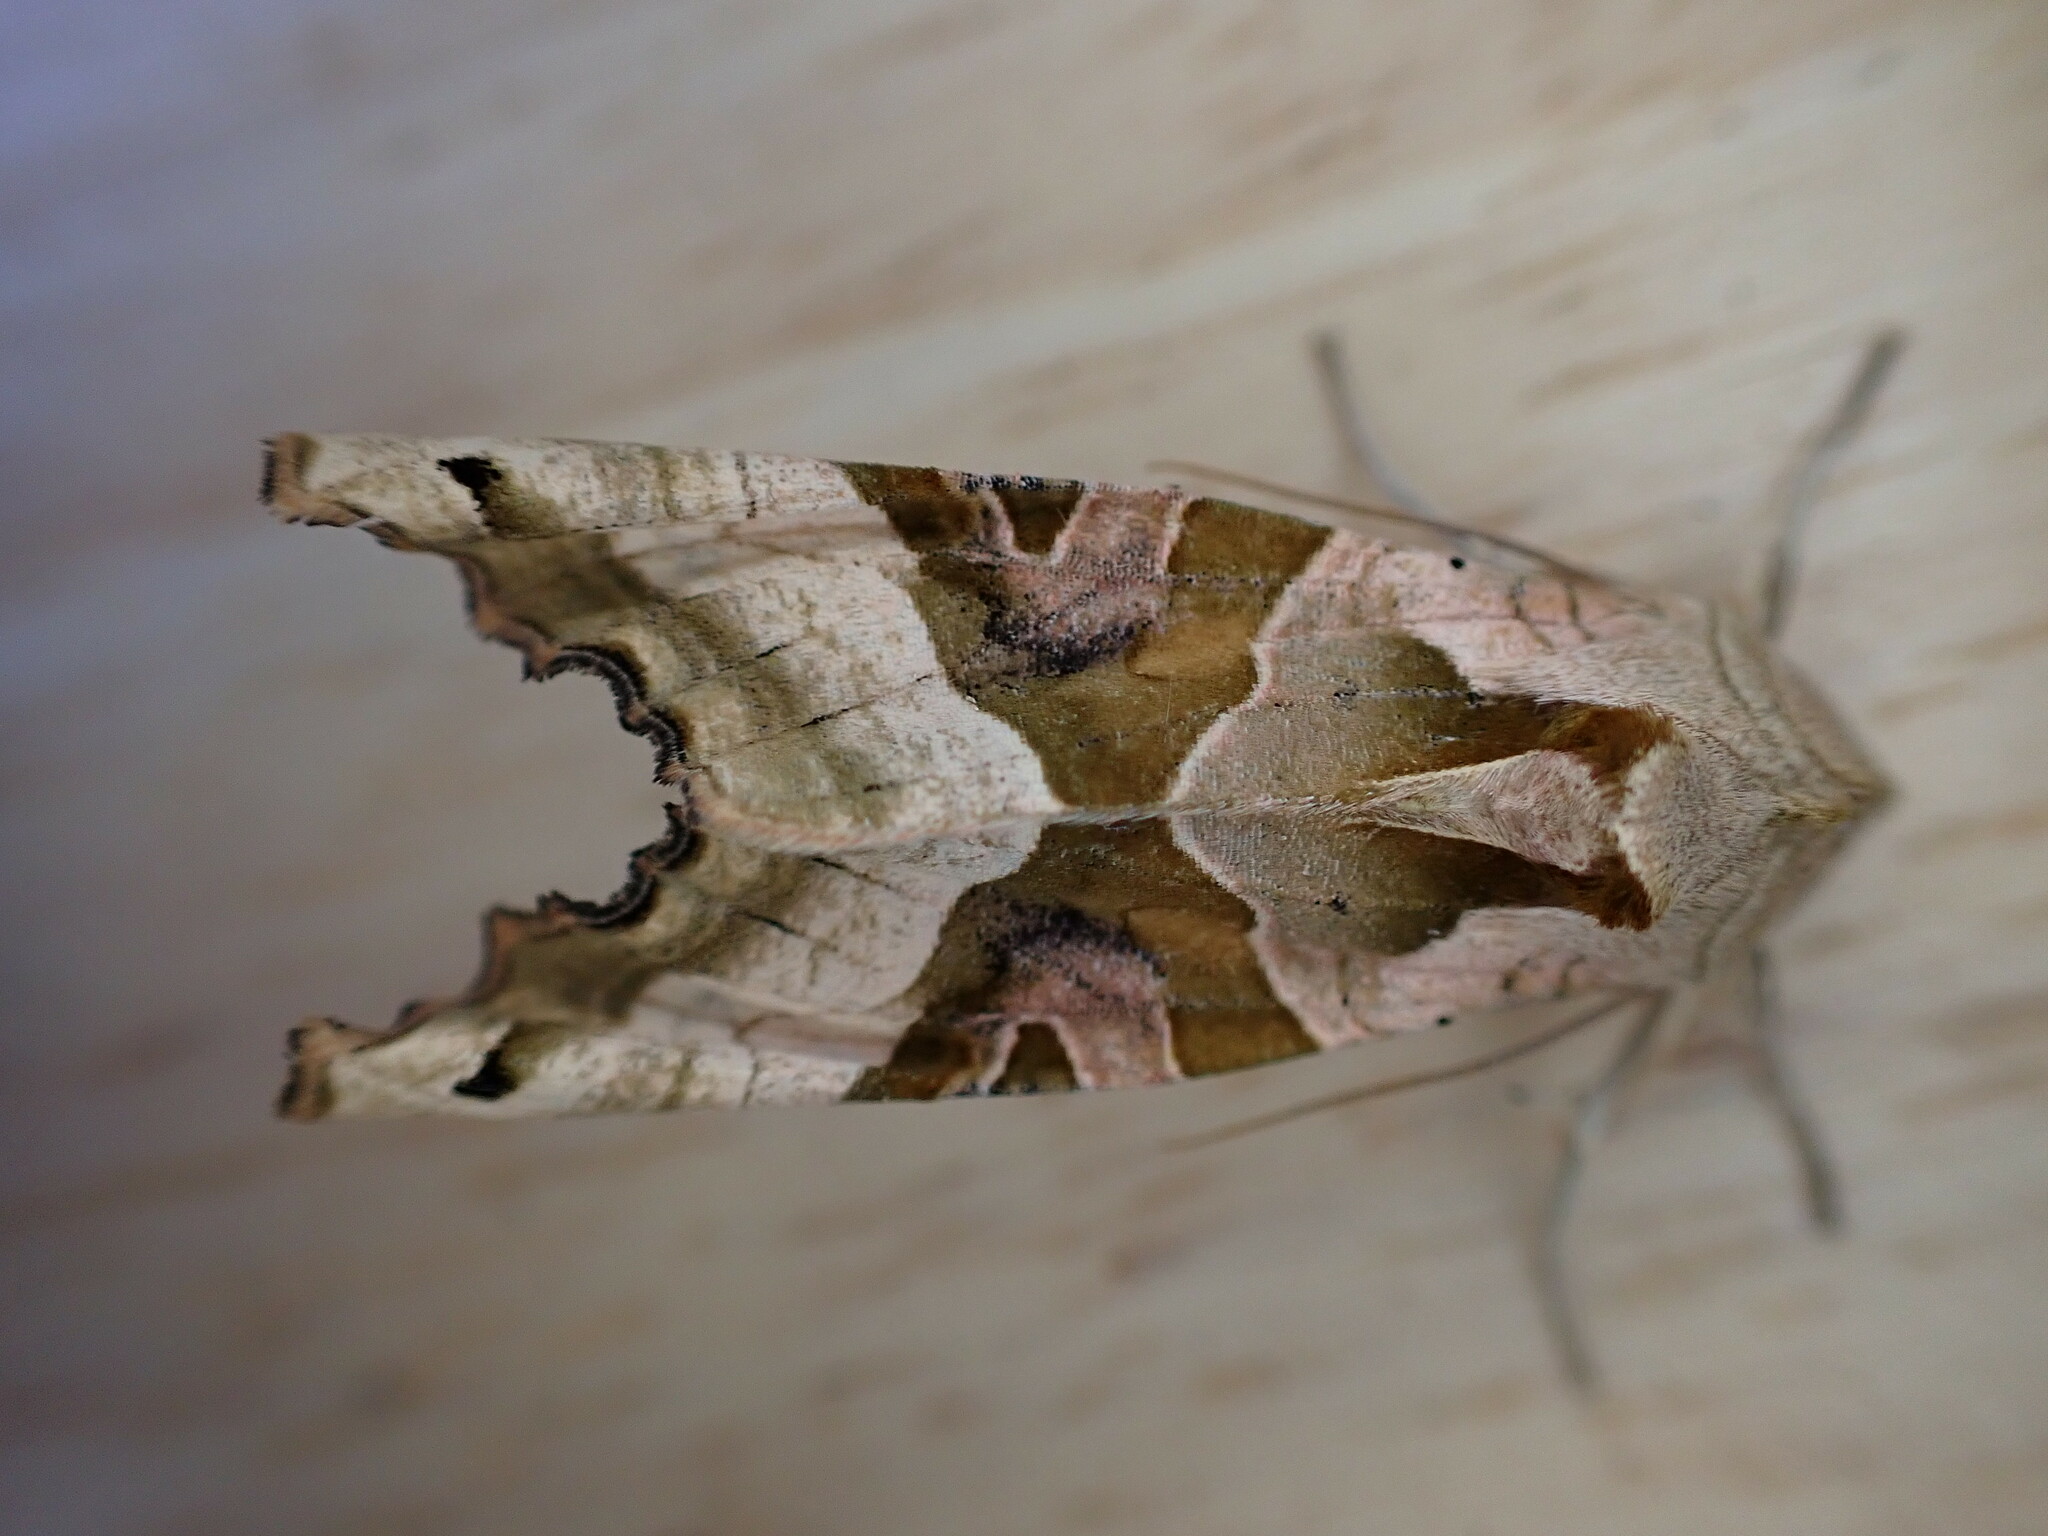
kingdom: Animalia
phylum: Arthropoda
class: Insecta
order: Lepidoptera
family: Noctuidae
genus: Phlogophora
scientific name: Phlogophora meticulosa
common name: Angle shades
